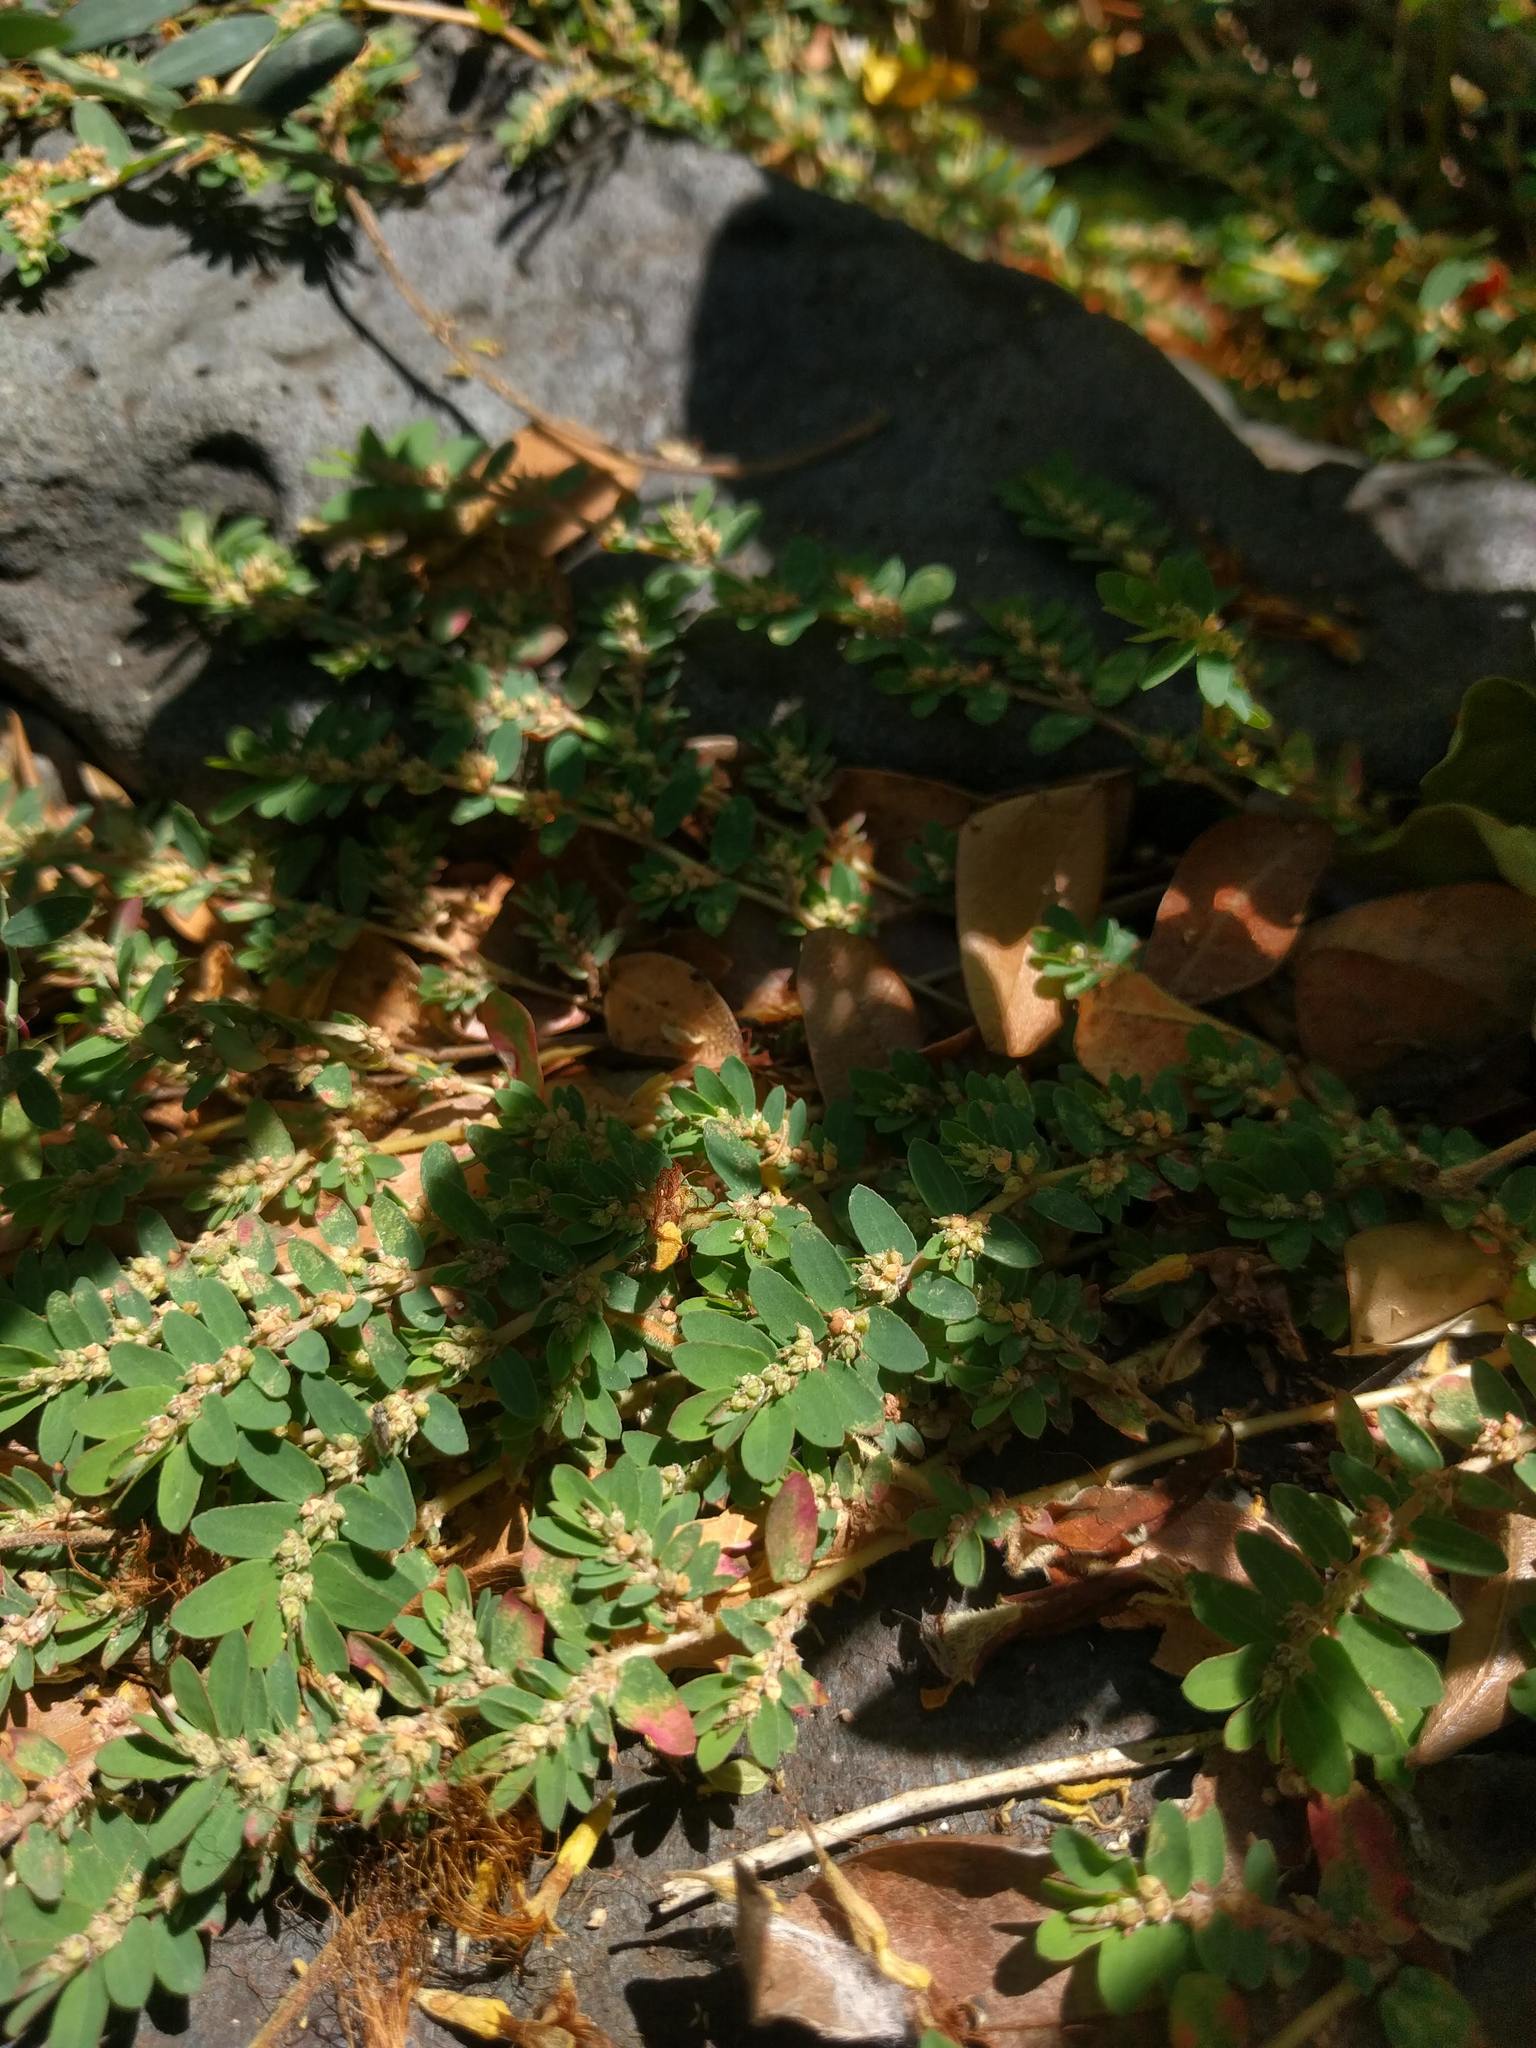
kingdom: Plantae
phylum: Tracheophyta
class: Magnoliopsida
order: Malpighiales
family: Euphorbiaceae
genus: Euphorbia
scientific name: Euphorbia thymifolia
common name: Gulf sandmat
